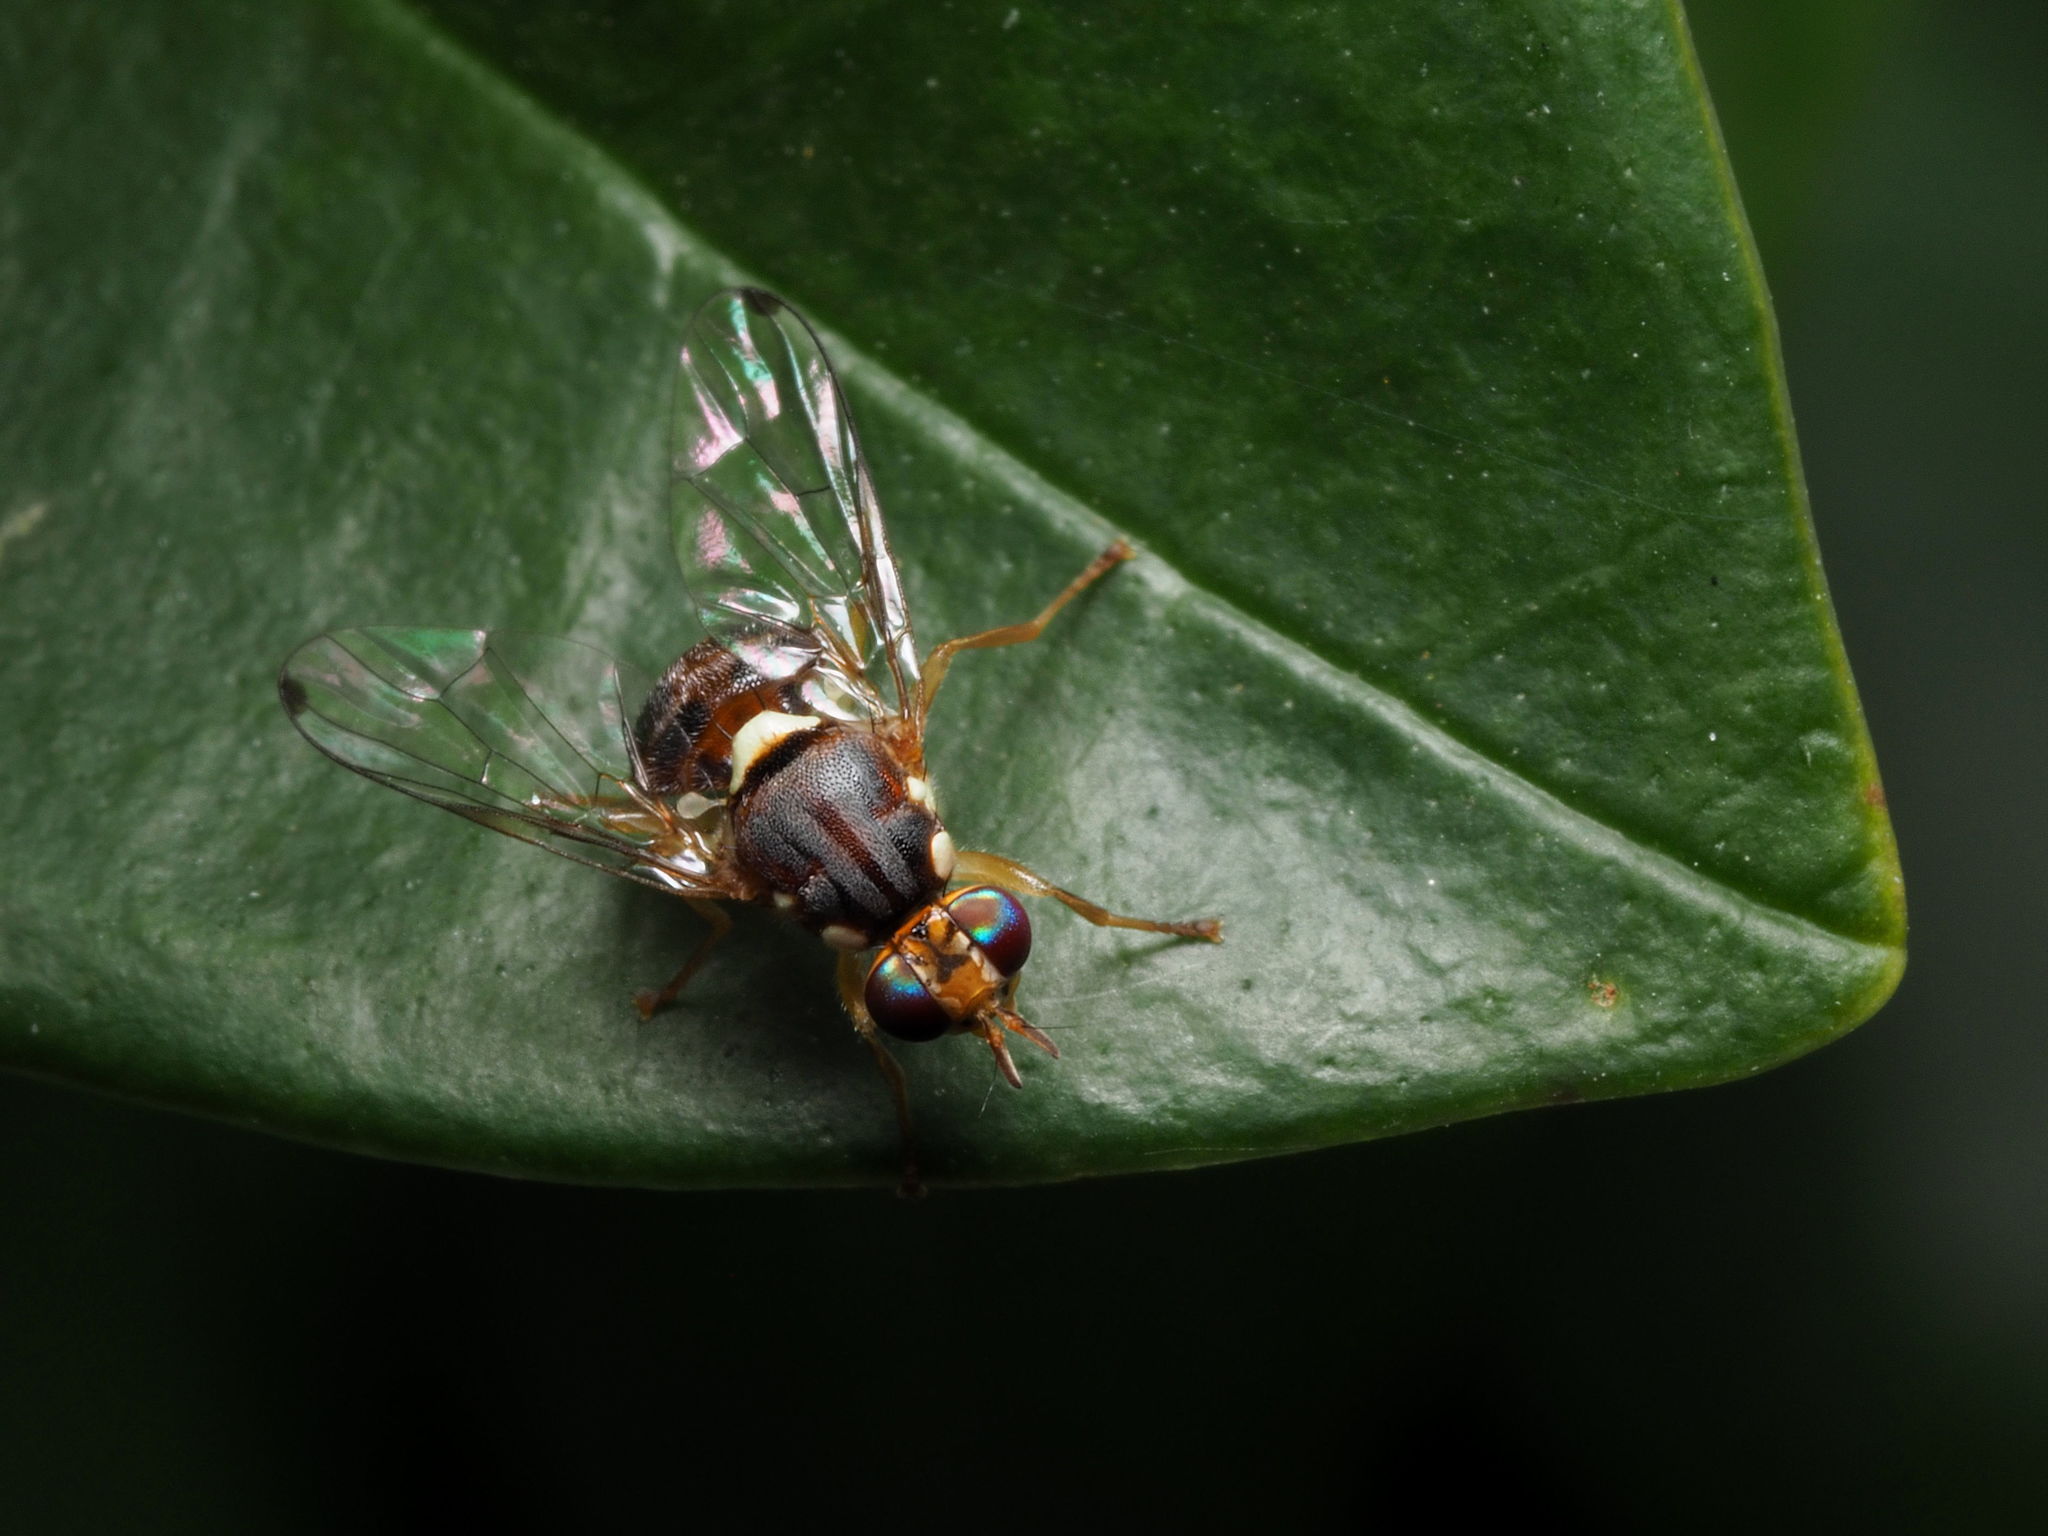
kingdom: Animalia
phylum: Arthropoda
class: Insecta
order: Diptera
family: Tephritidae
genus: Bactrocera
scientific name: Bactrocera oleae
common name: Olive fruit fly
